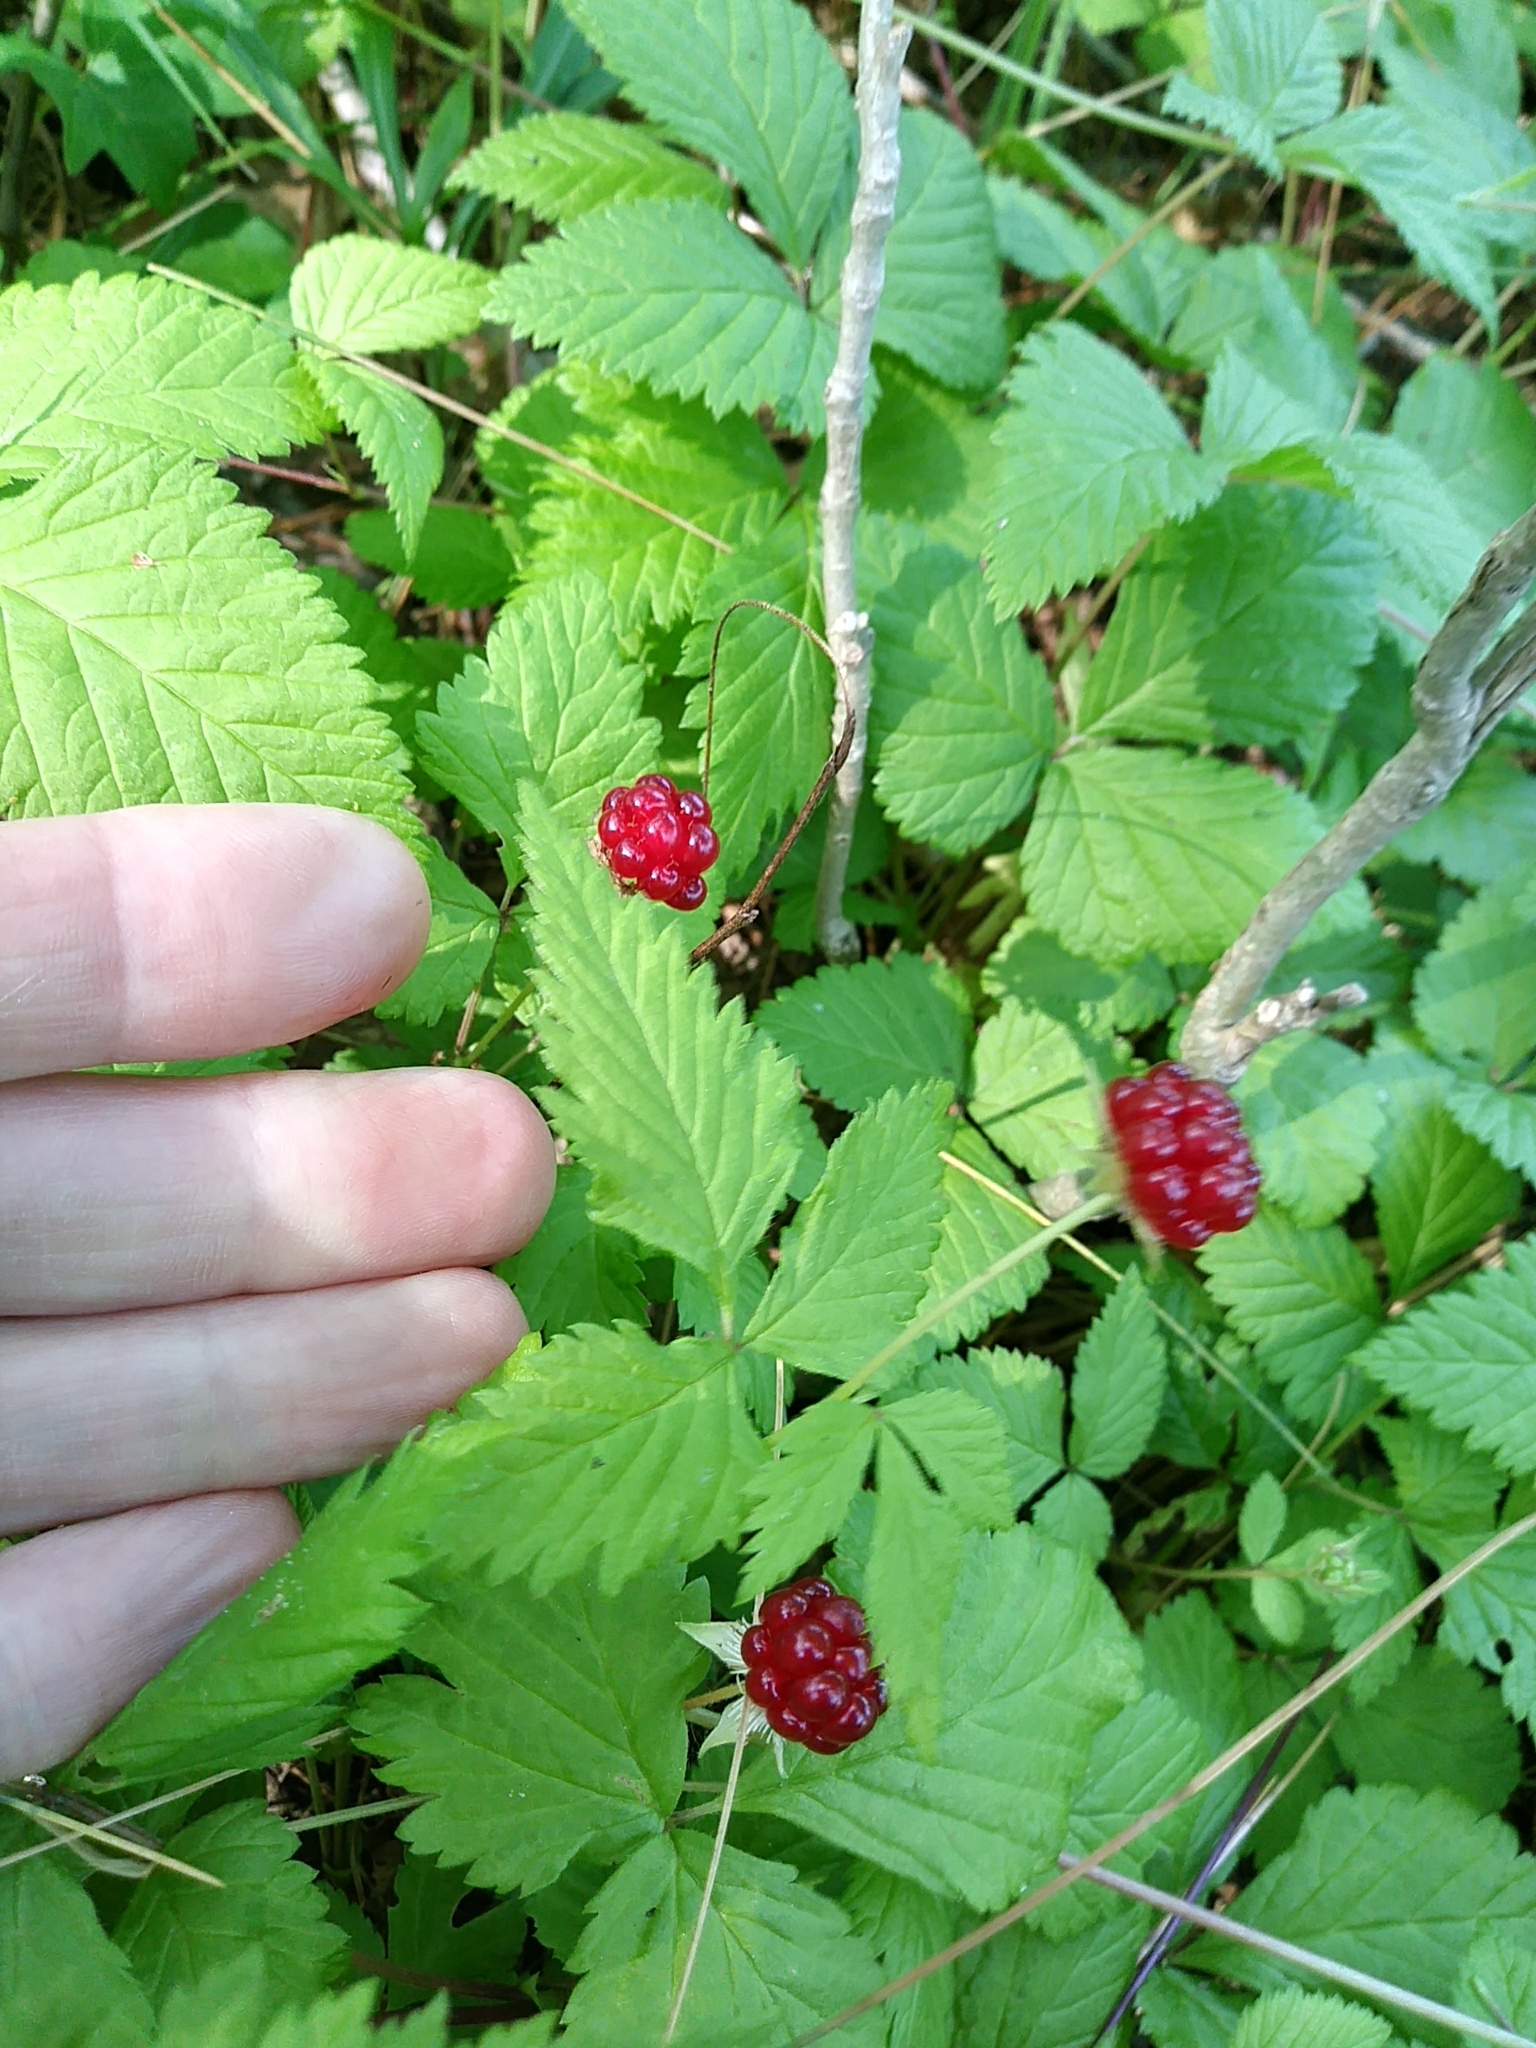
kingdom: Plantae
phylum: Tracheophyta
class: Magnoliopsida
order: Rosales
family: Rosaceae
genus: Rubus
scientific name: Rubus pubescens
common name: Dwarf raspberry
